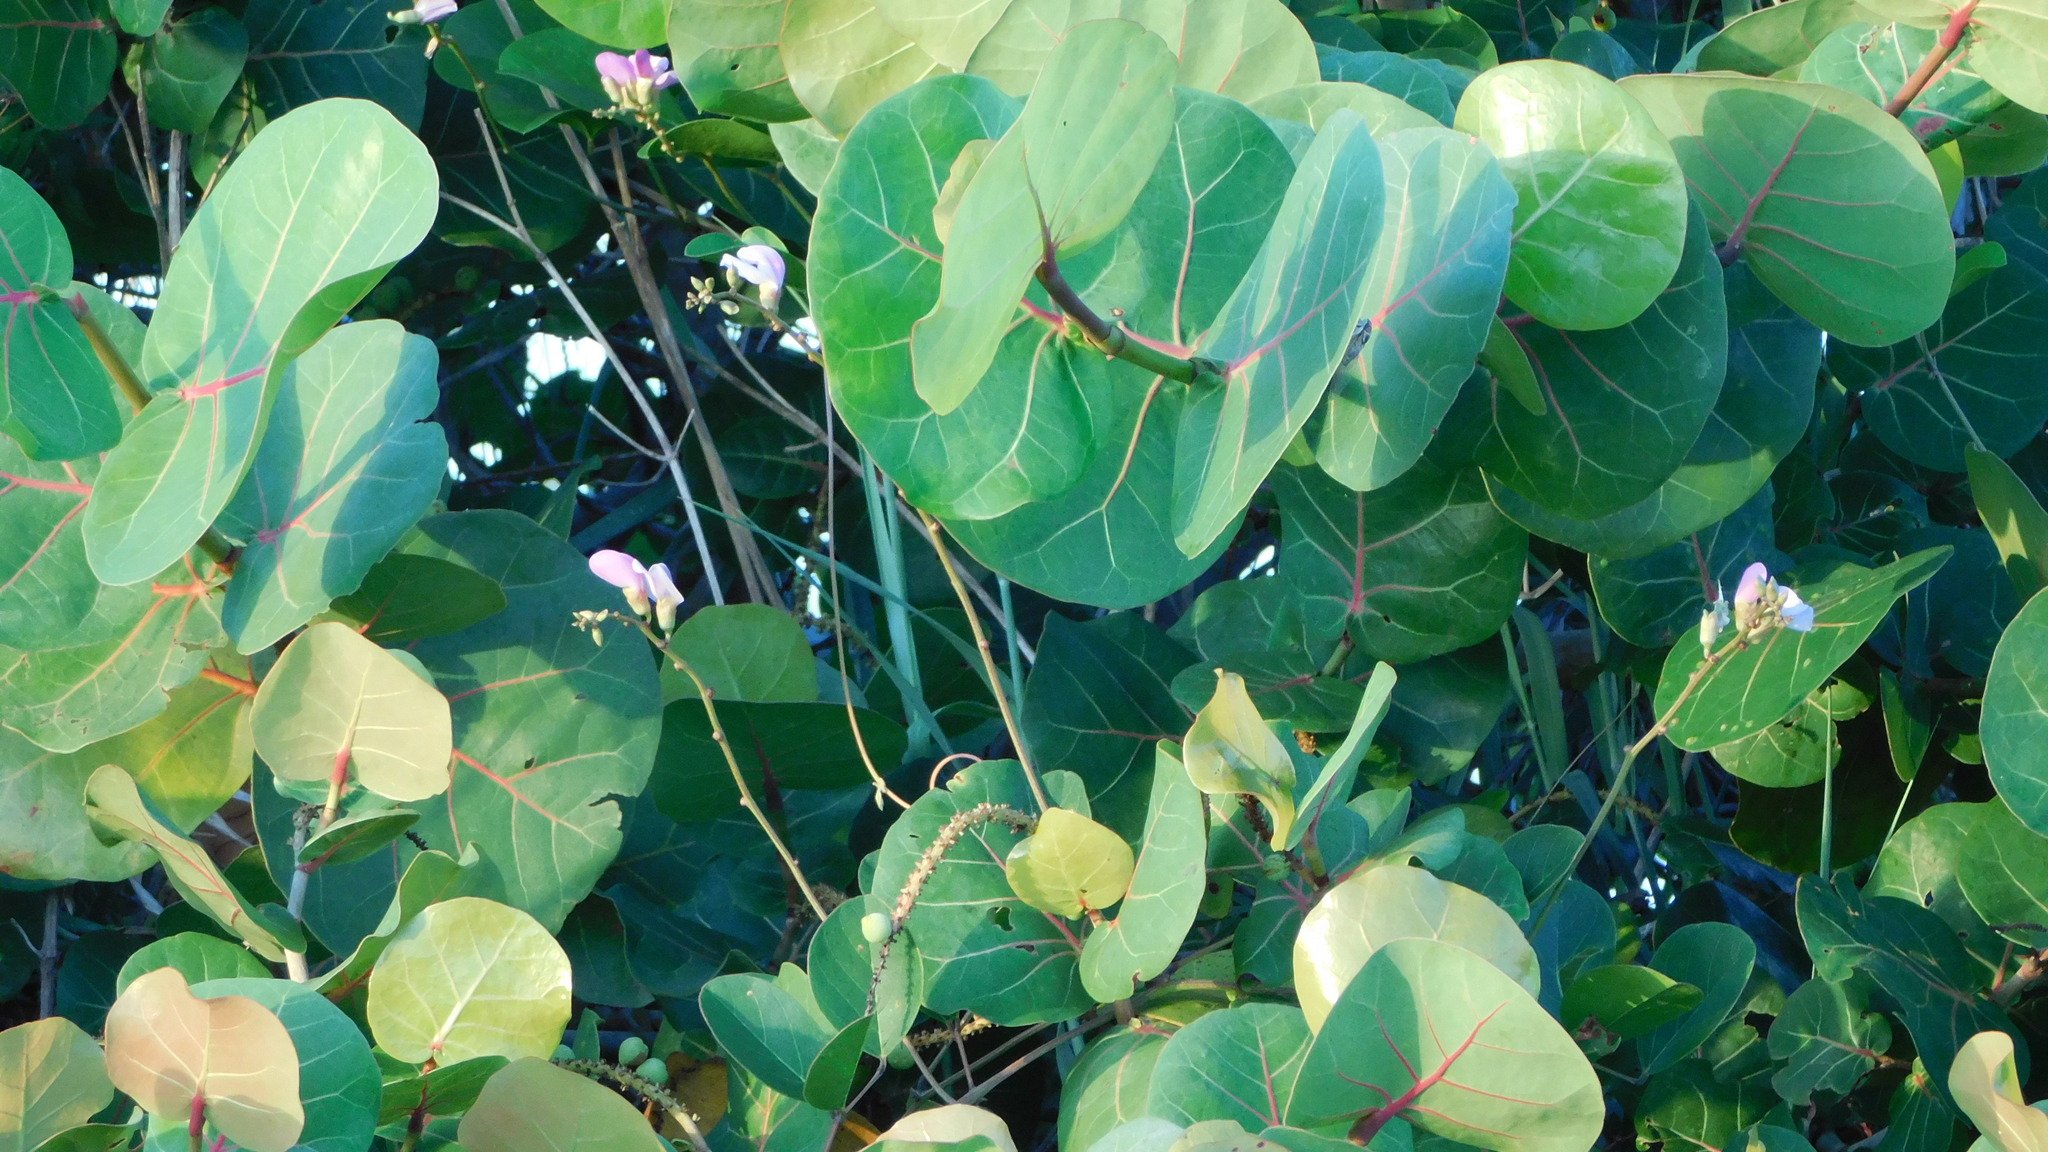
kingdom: Plantae
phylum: Tracheophyta
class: Magnoliopsida
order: Caryophyllales
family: Polygonaceae
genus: Coccoloba
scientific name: Coccoloba uvifera
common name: Seagrape
